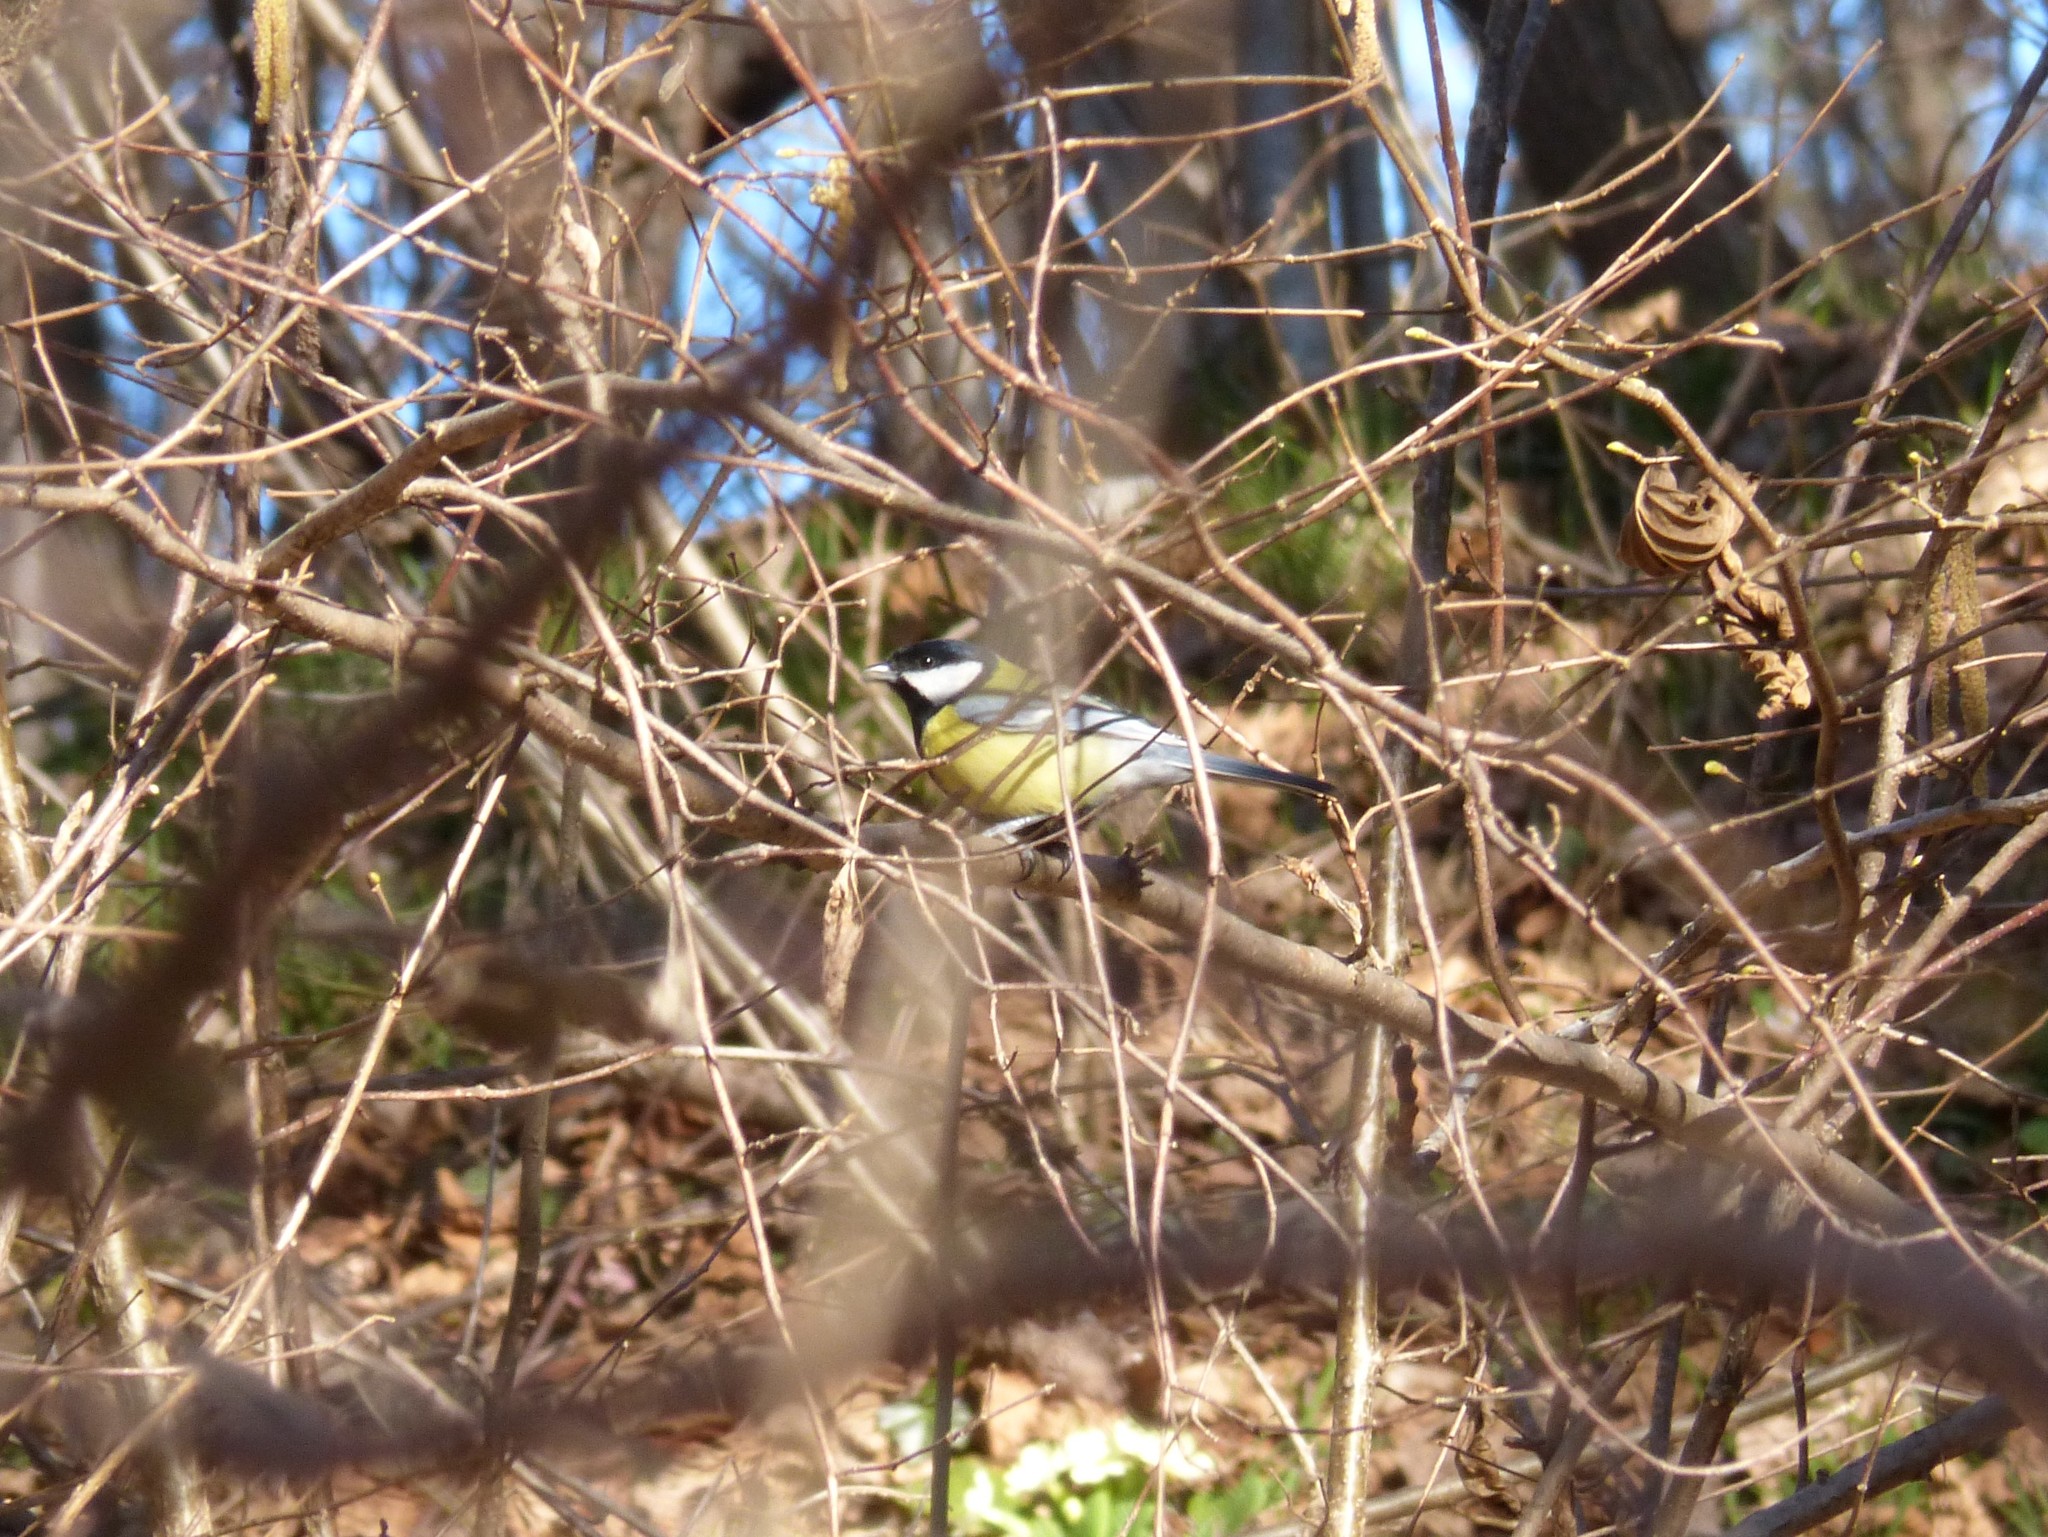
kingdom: Animalia
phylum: Chordata
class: Aves
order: Passeriformes
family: Paridae
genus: Parus
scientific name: Parus major
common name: Great tit
